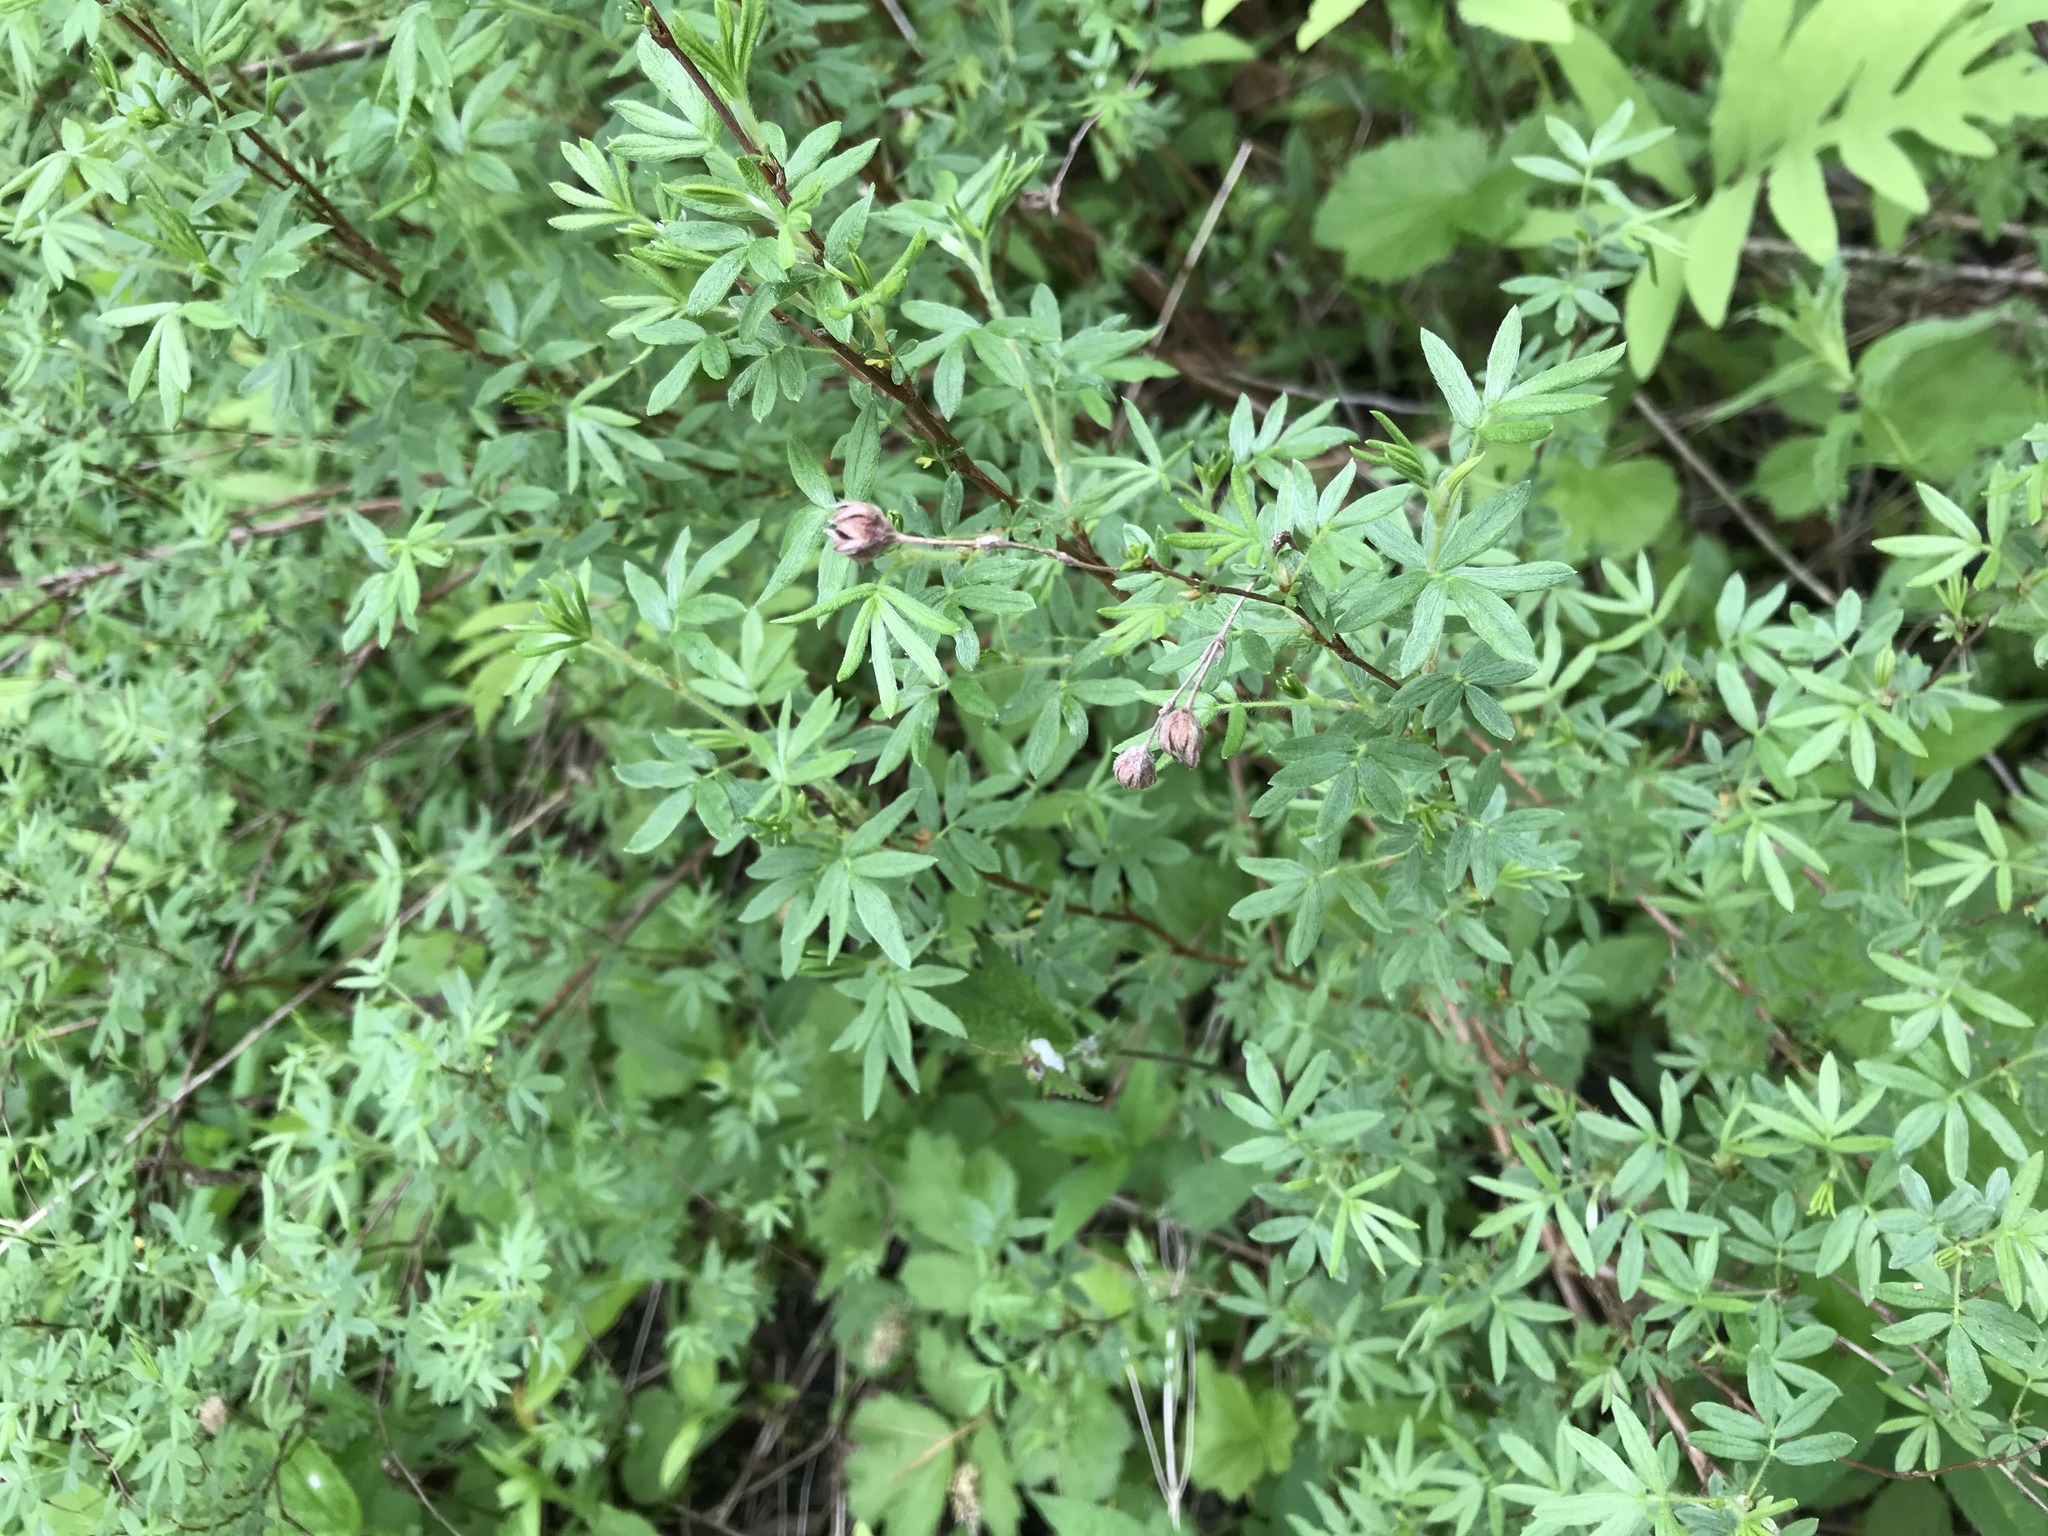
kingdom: Plantae
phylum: Tracheophyta
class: Magnoliopsida
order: Rosales
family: Rosaceae
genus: Dasiphora
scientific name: Dasiphora fruticosa
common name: Shrubby cinquefoil
